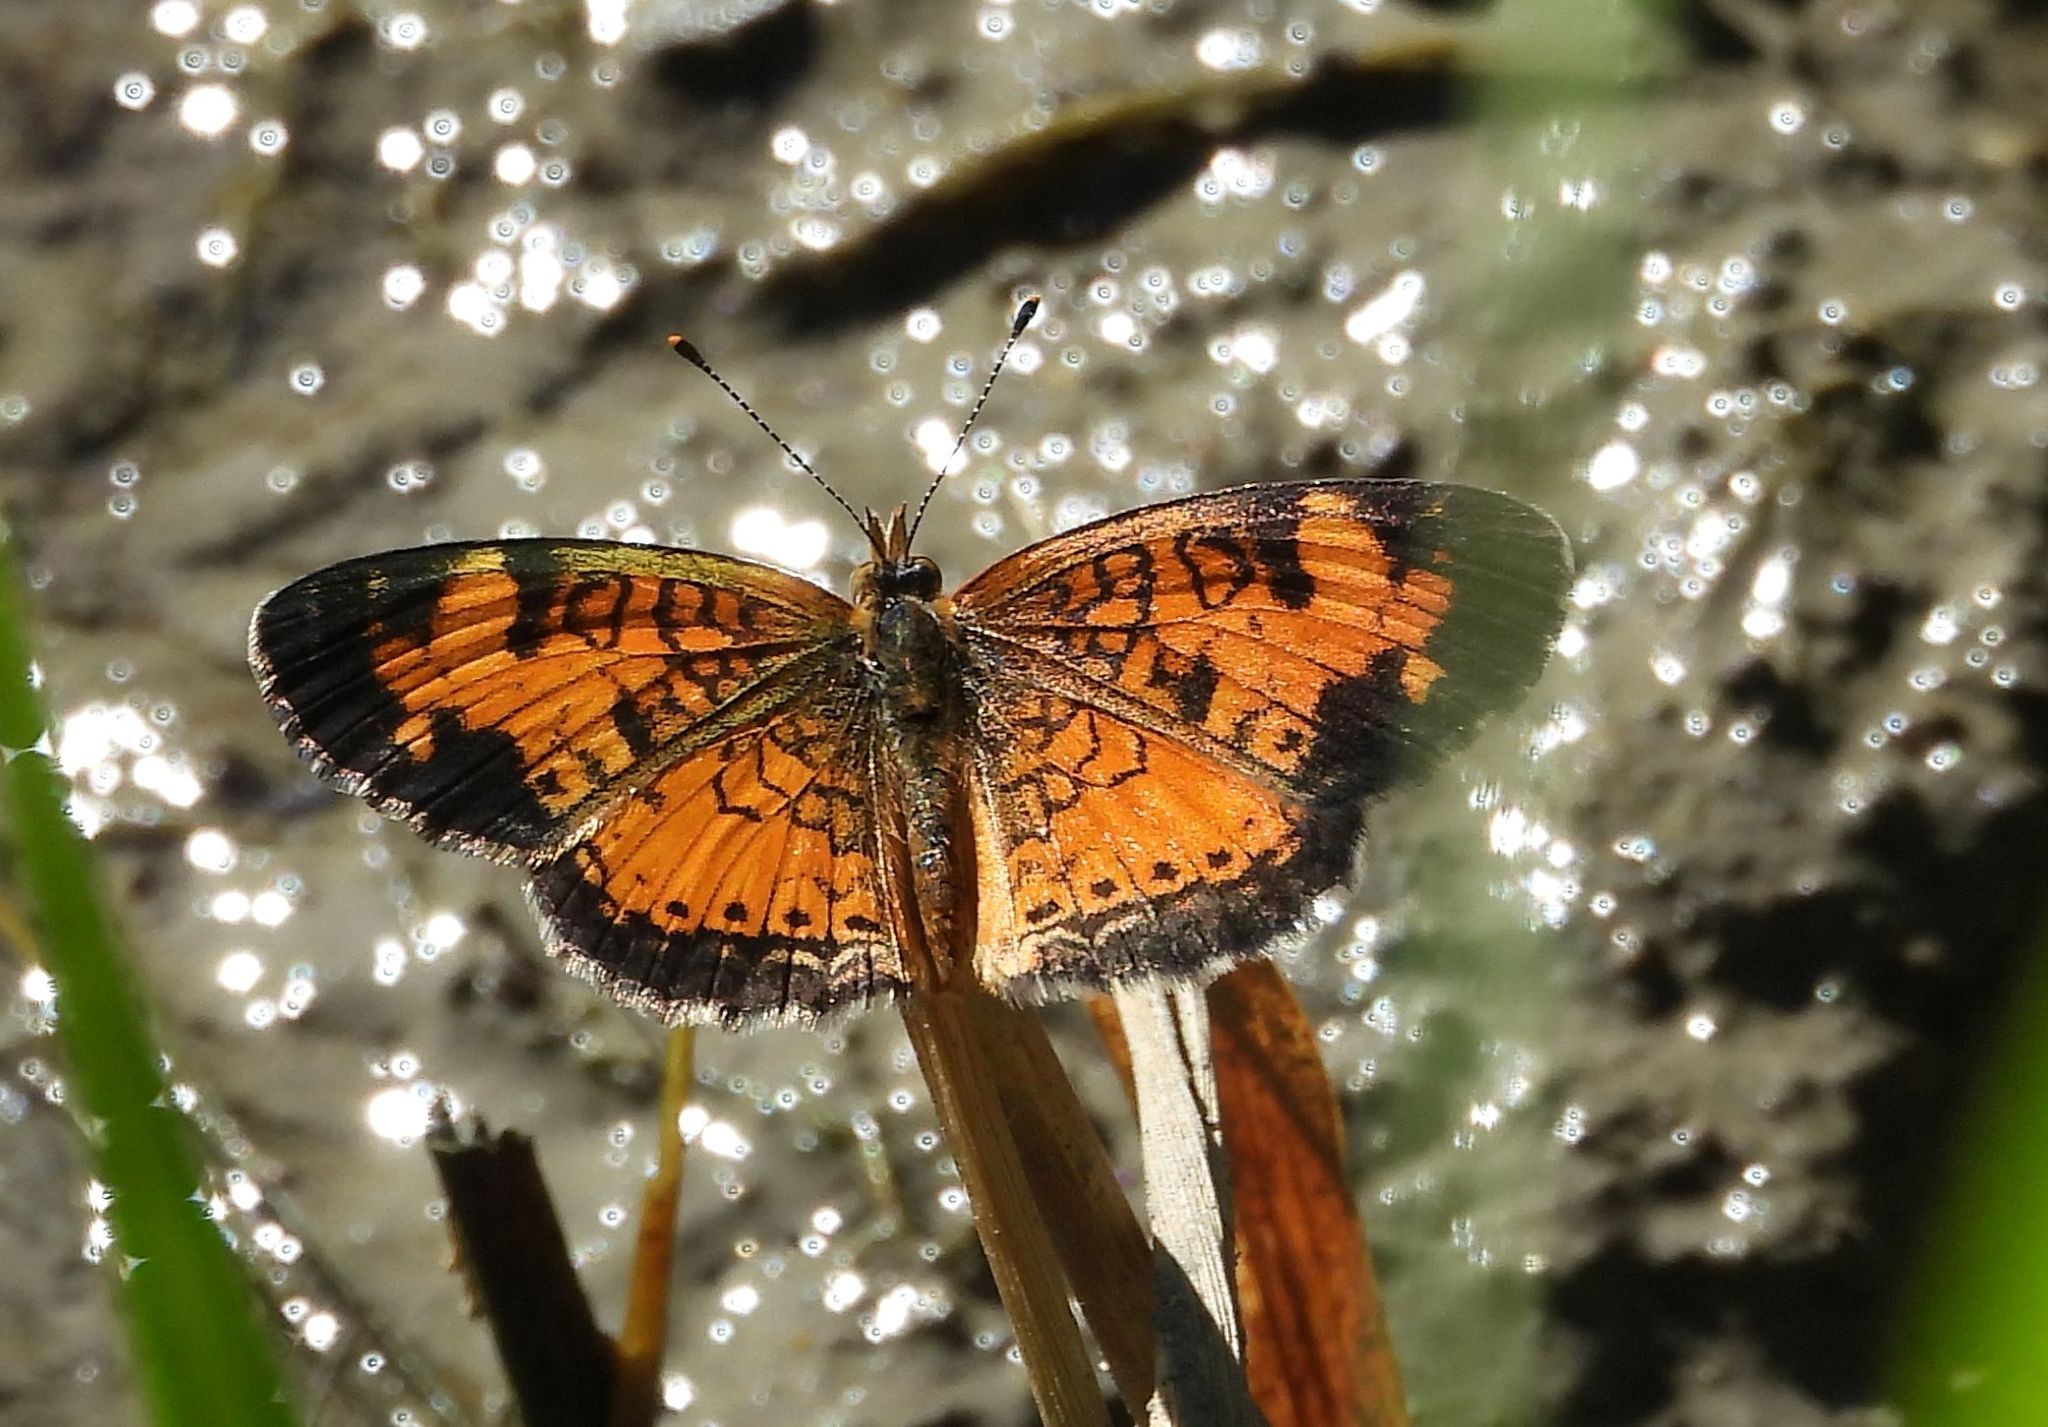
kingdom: Animalia
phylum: Arthropoda
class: Insecta
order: Lepidoptera
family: Nymphalidae
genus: Phyciodes
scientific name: Phyciodes tharos
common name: Pearl crescent
